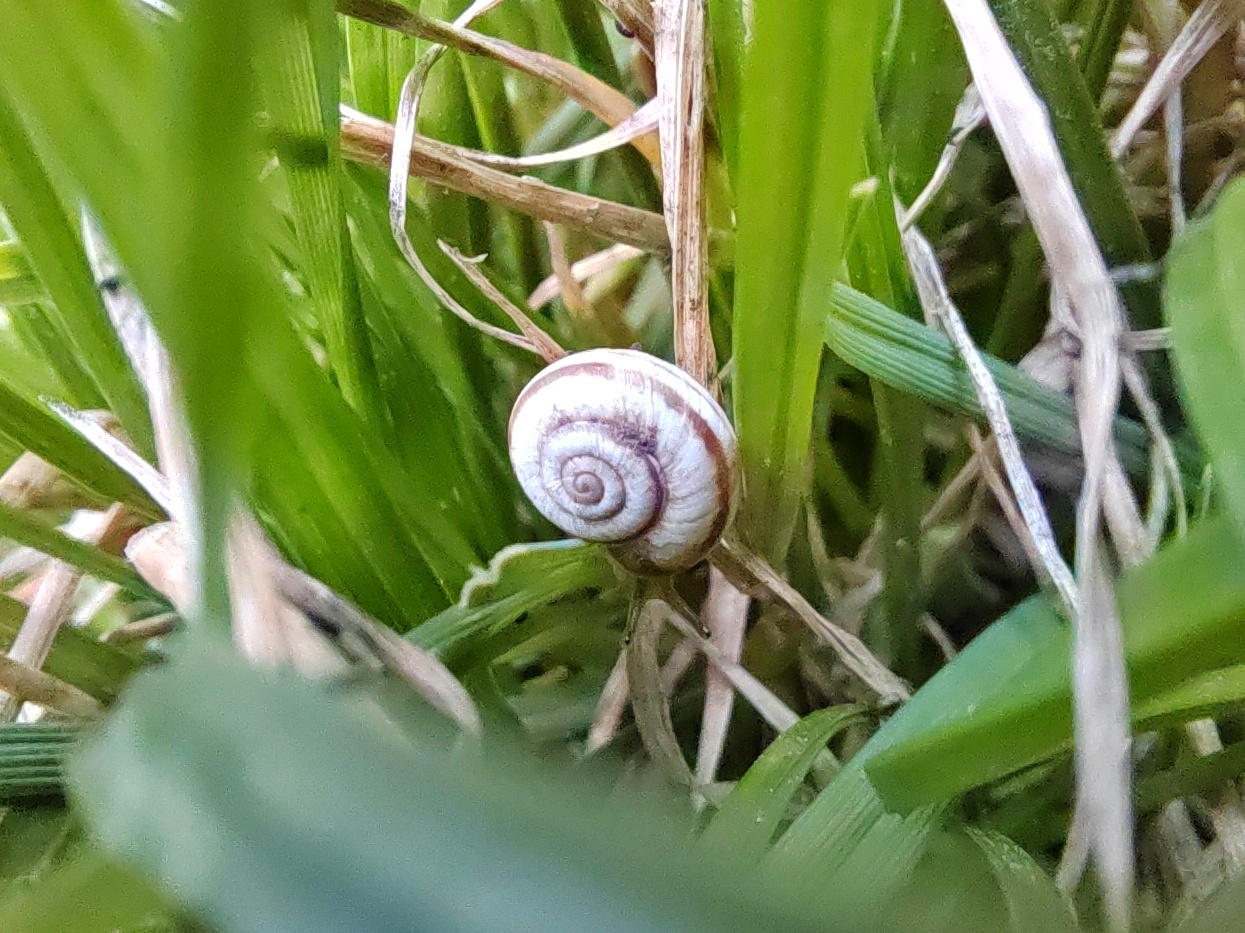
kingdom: Animalia
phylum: Mollusca
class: Gastropoda
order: Stylommatophora
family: Geomitridae
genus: Xeropicta
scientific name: Xeropicta derbentina
